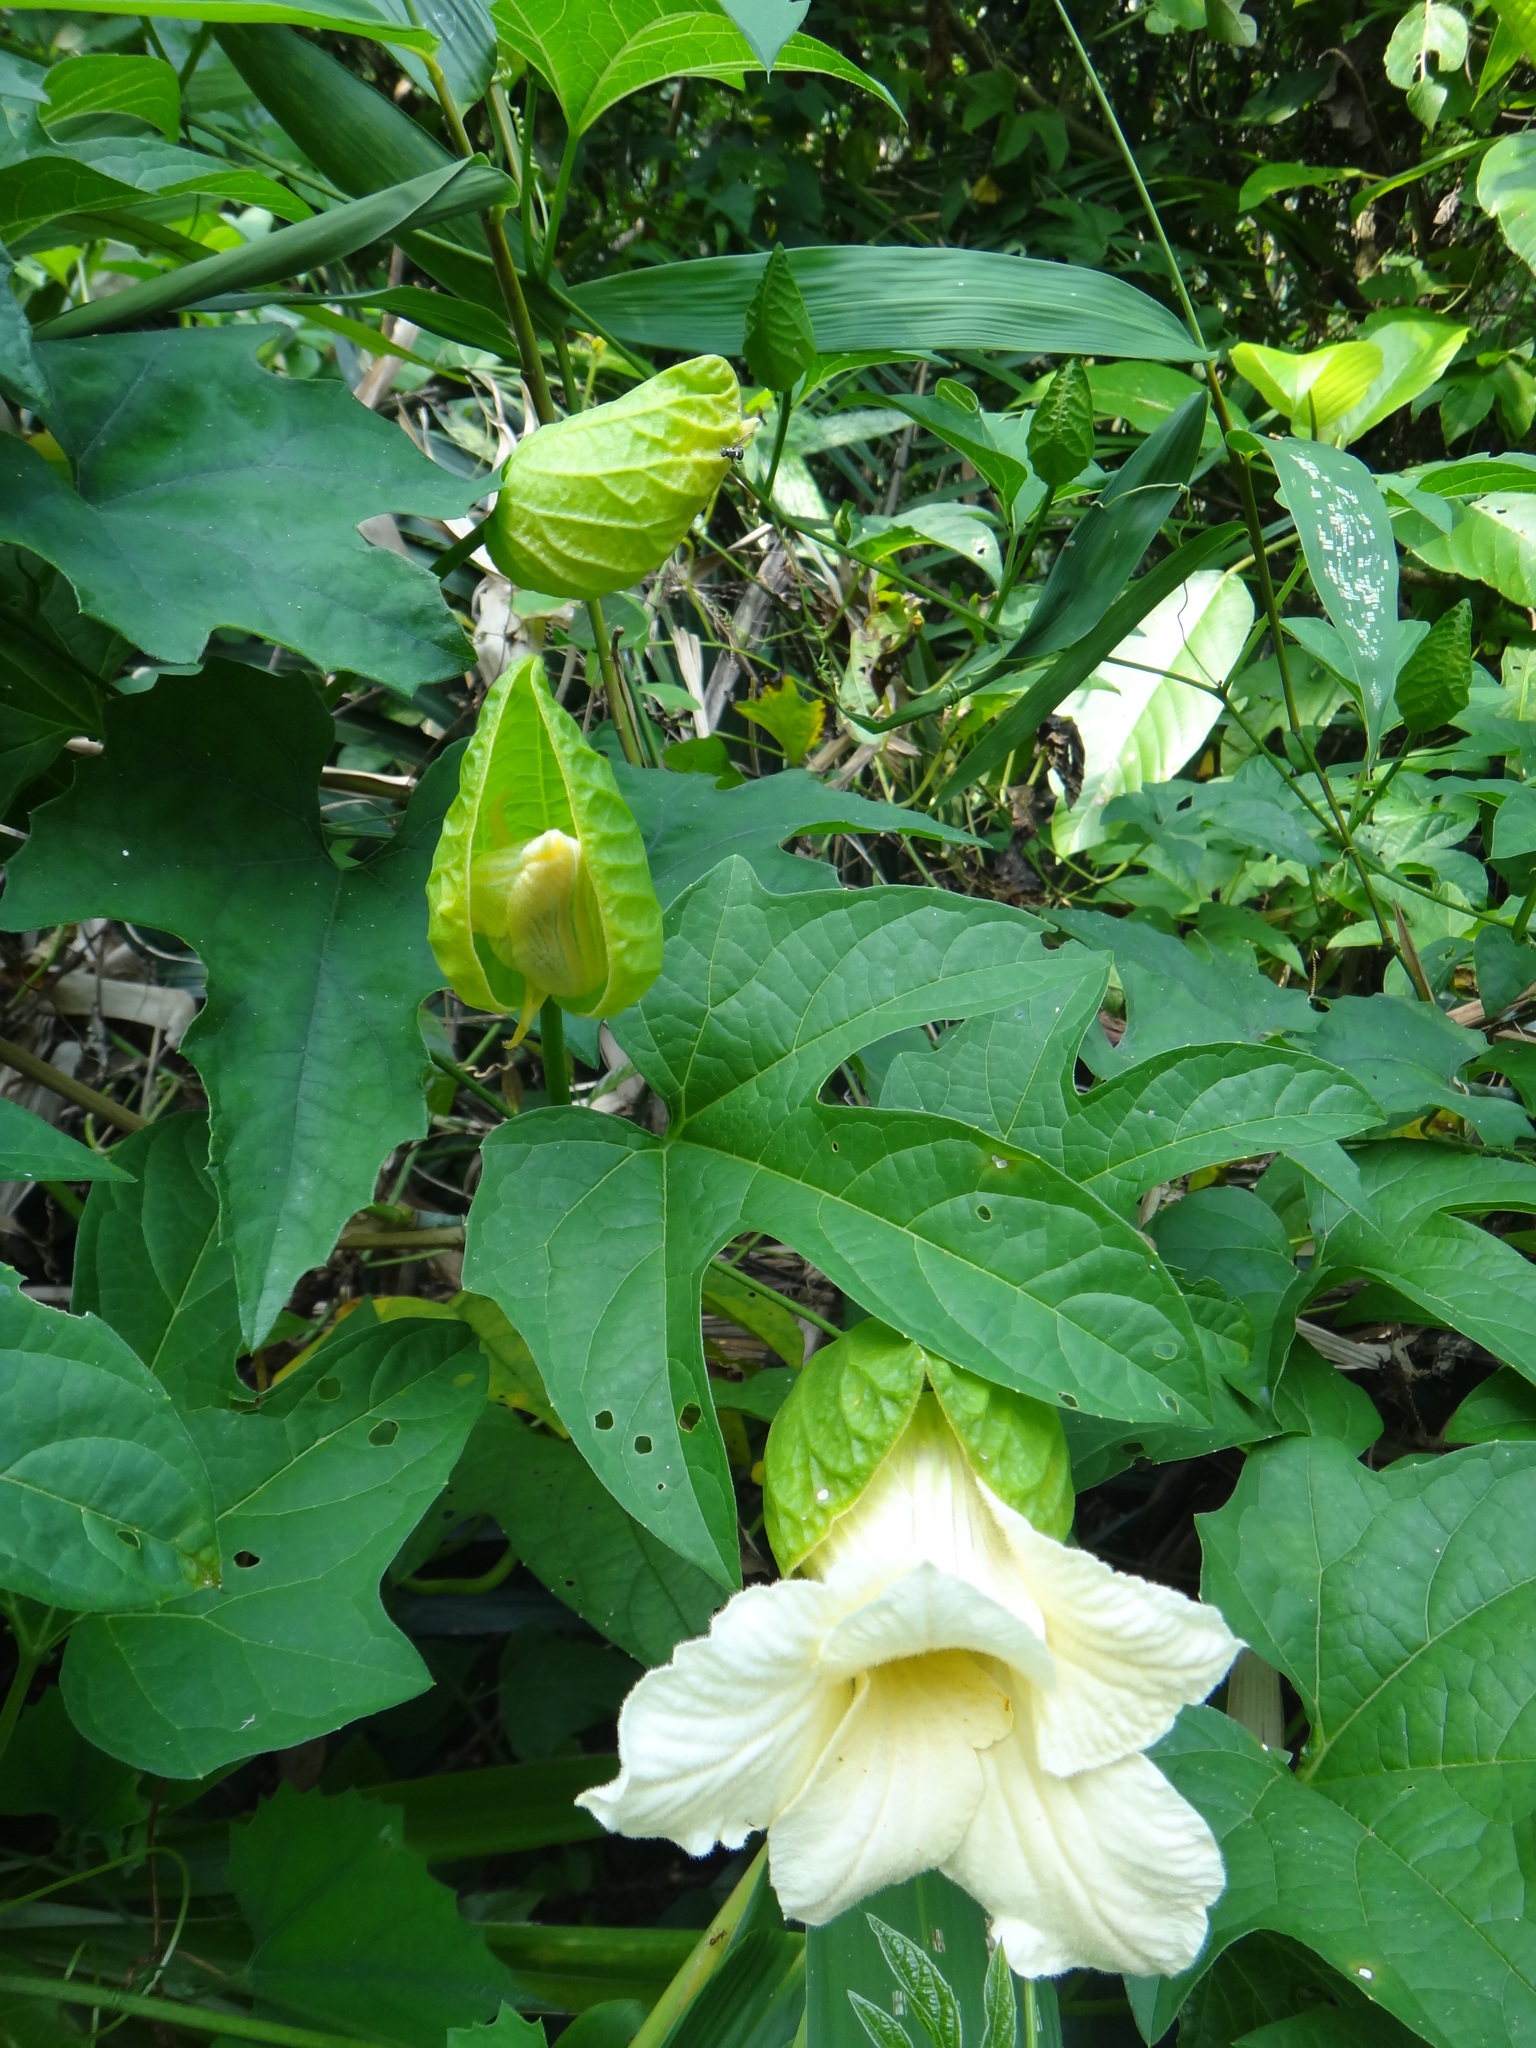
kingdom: Plantae
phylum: Tracheophyta
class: Magnoliopsida
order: Cucurbitales
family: Cucurbitaceae
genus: Momordica
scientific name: Momordica cochinchinensis
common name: Chinese bitter-cucumber
